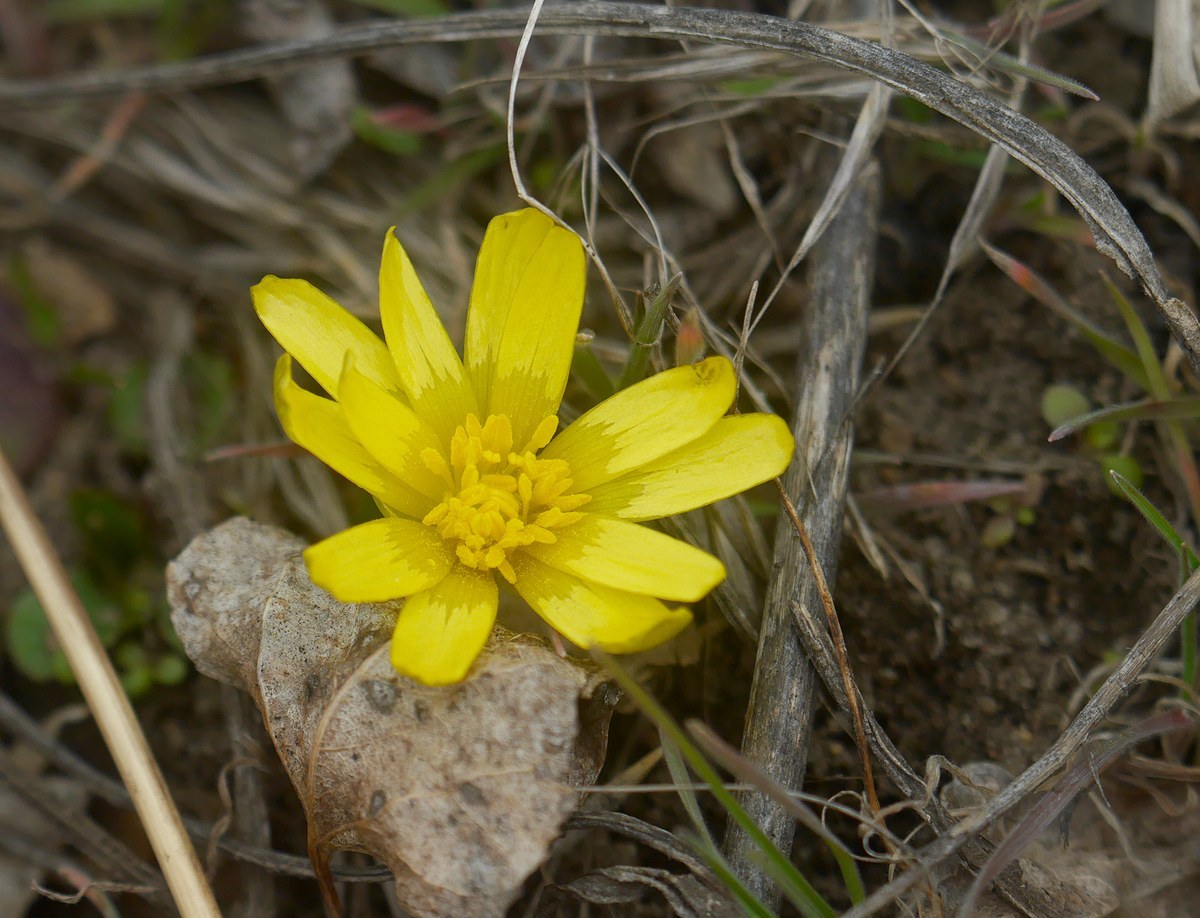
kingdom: Plantae
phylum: Tracheophyta
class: Magnoliopsida
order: Ranunculales
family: Ranunculaceae
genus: Ficaria
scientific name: Ficaria verna
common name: Lesser celandine
